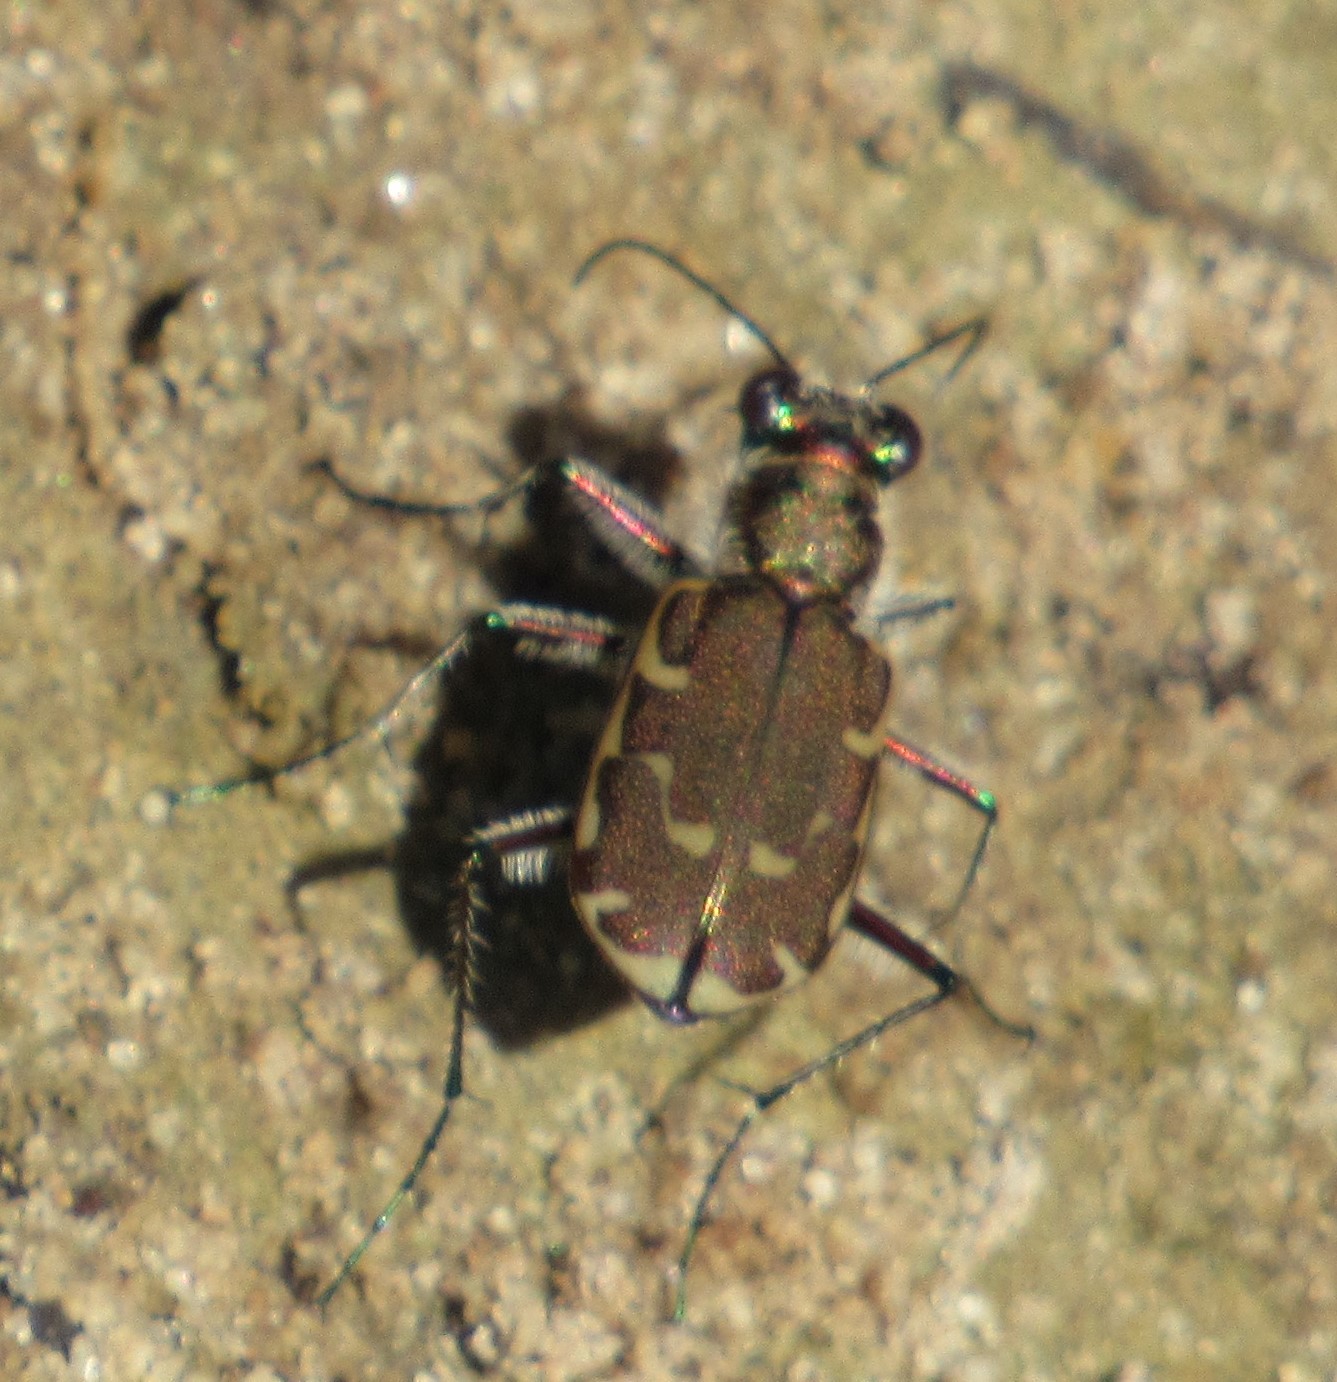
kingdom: Animalia
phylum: Arthropoda
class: Insecta
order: Coleoptera
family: Carabidae
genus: Cicindela
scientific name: Cicindela repanda
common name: Bronzed tiger beetle
